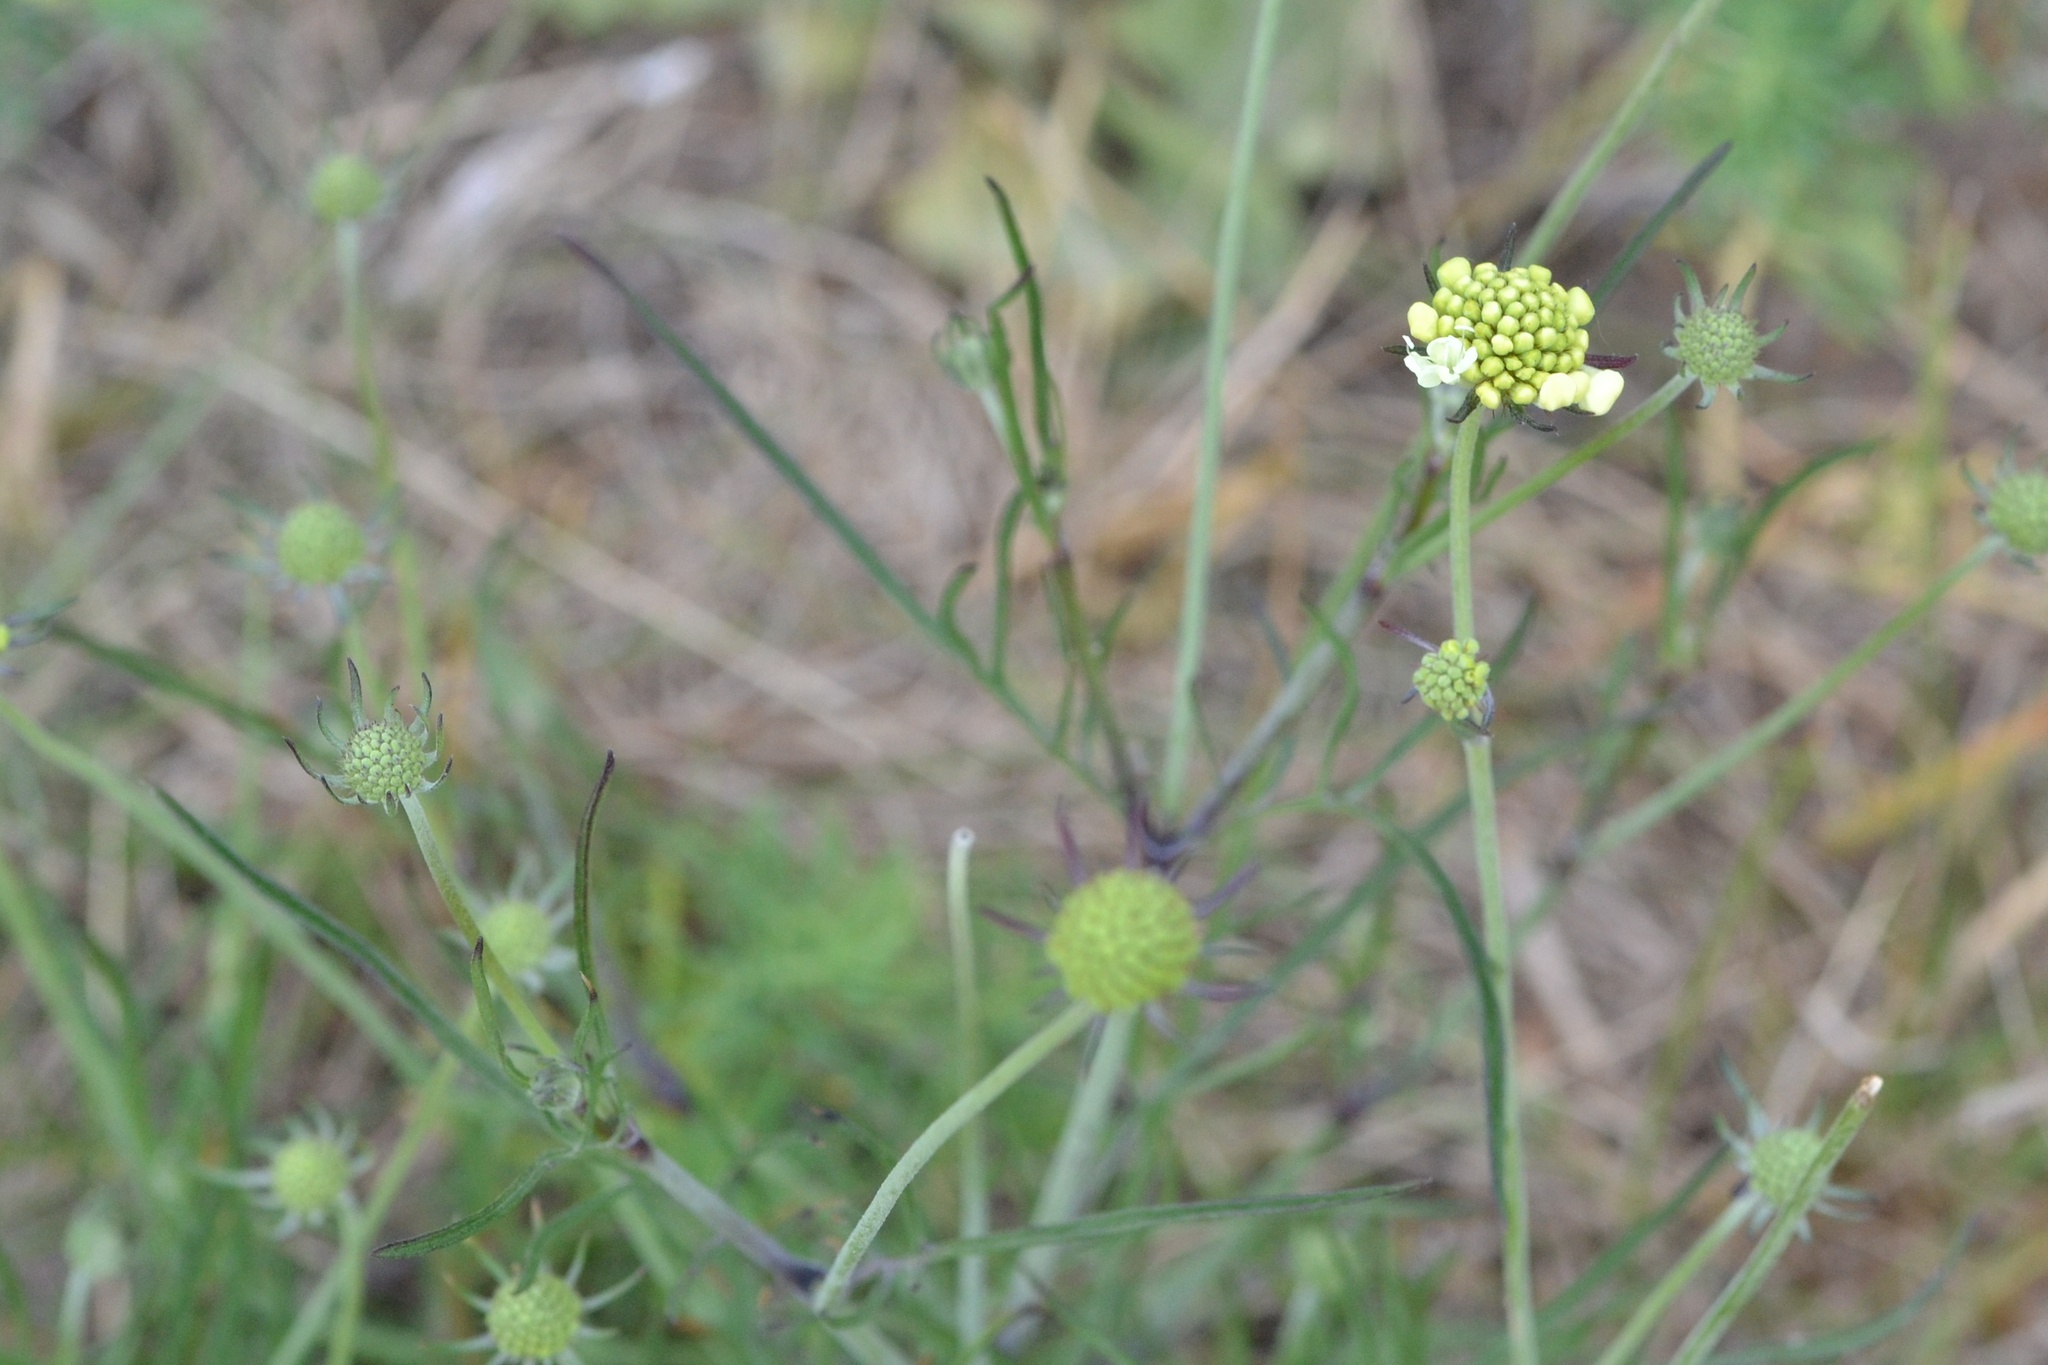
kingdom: Plantae
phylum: Tracheophyta
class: Magnoliopsida
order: Dipsacales
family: Caprifoliaceae
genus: Scabiosa
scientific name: Scabiosa ochroleuca
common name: Cream pincushions
